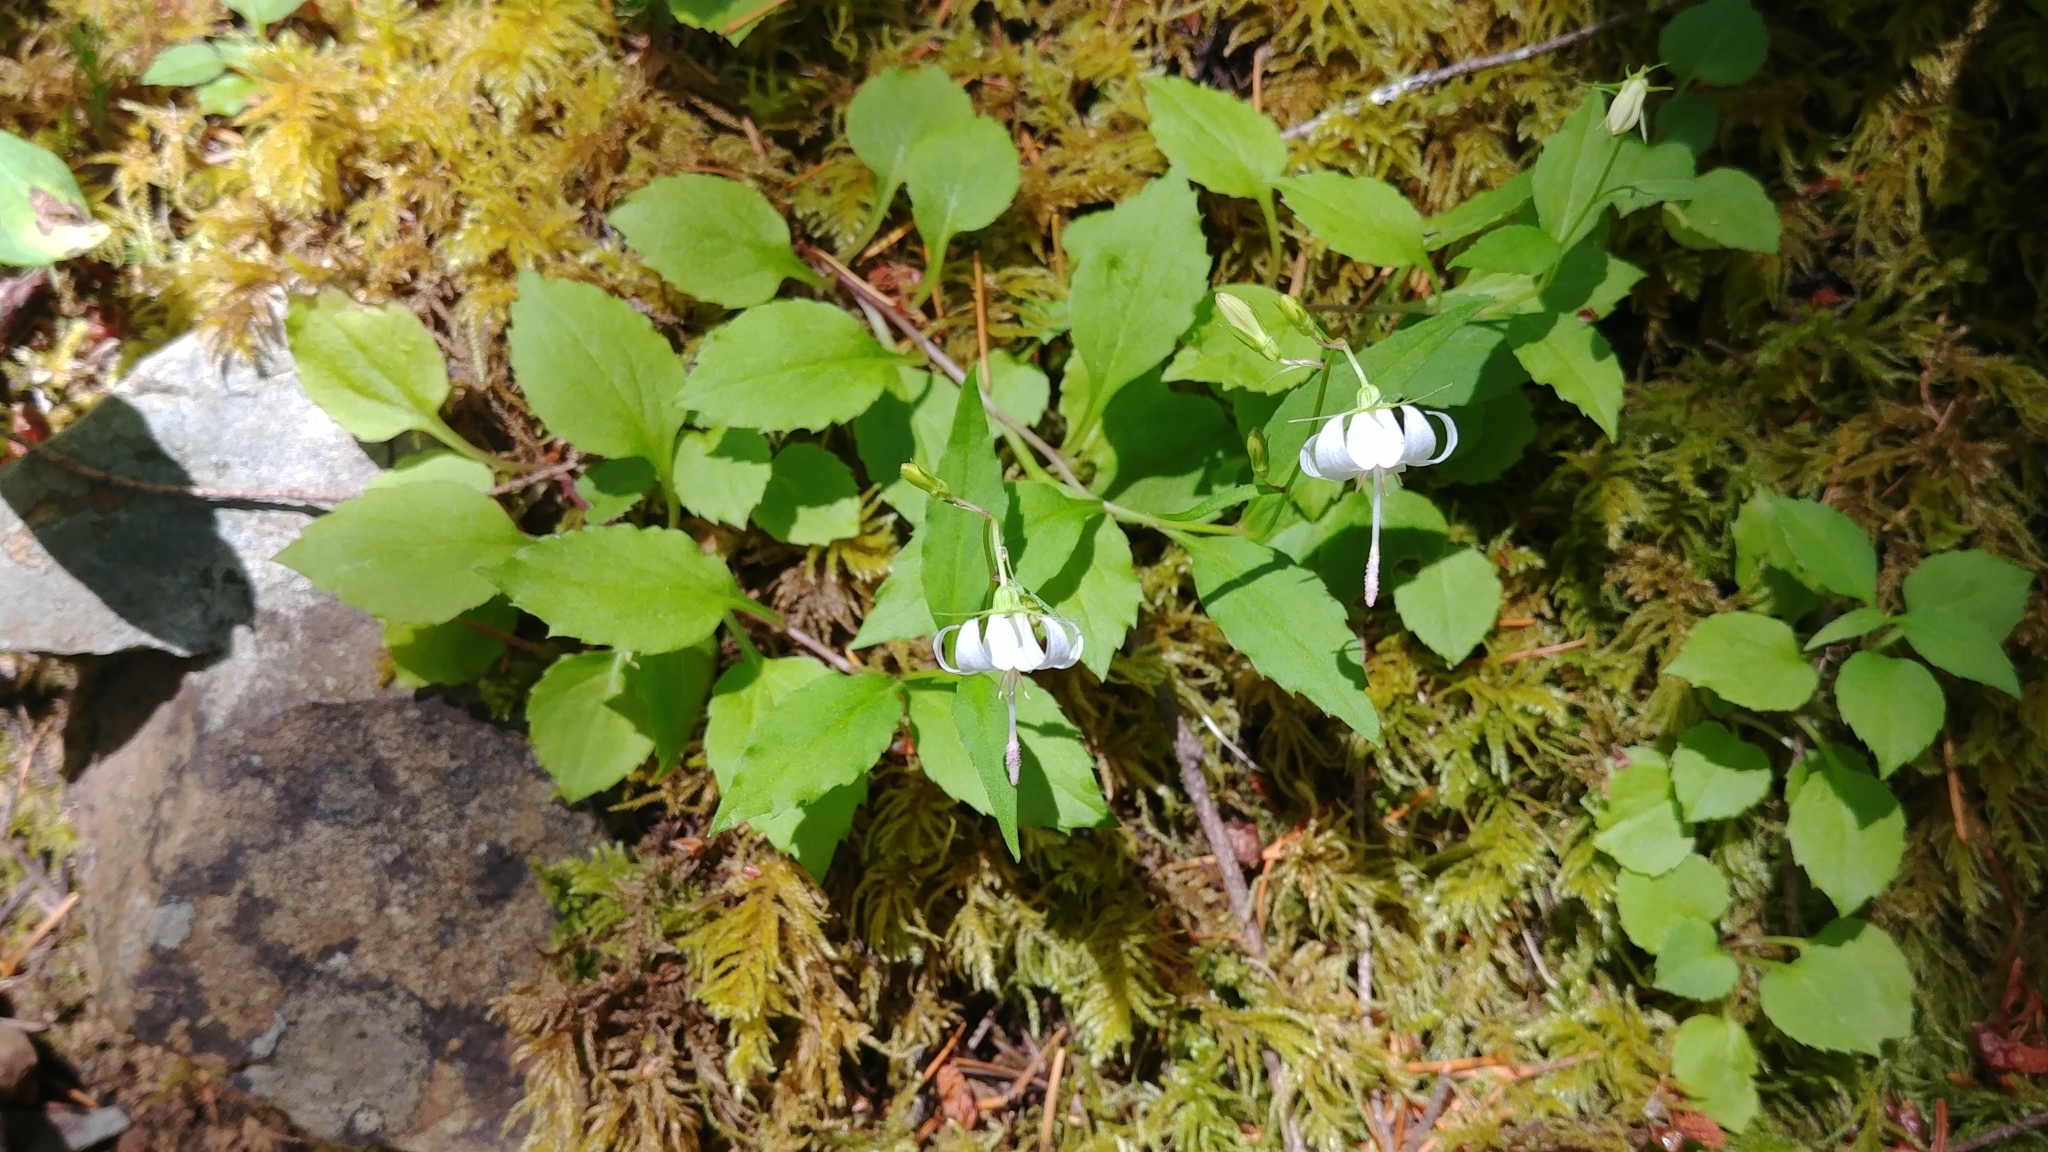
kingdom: Plantae
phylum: Tracheophyta
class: Magnoliopsida
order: Asterales
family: Campanulaceae
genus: Campanula
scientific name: Campanula scouleri
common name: Scouler's harebell
